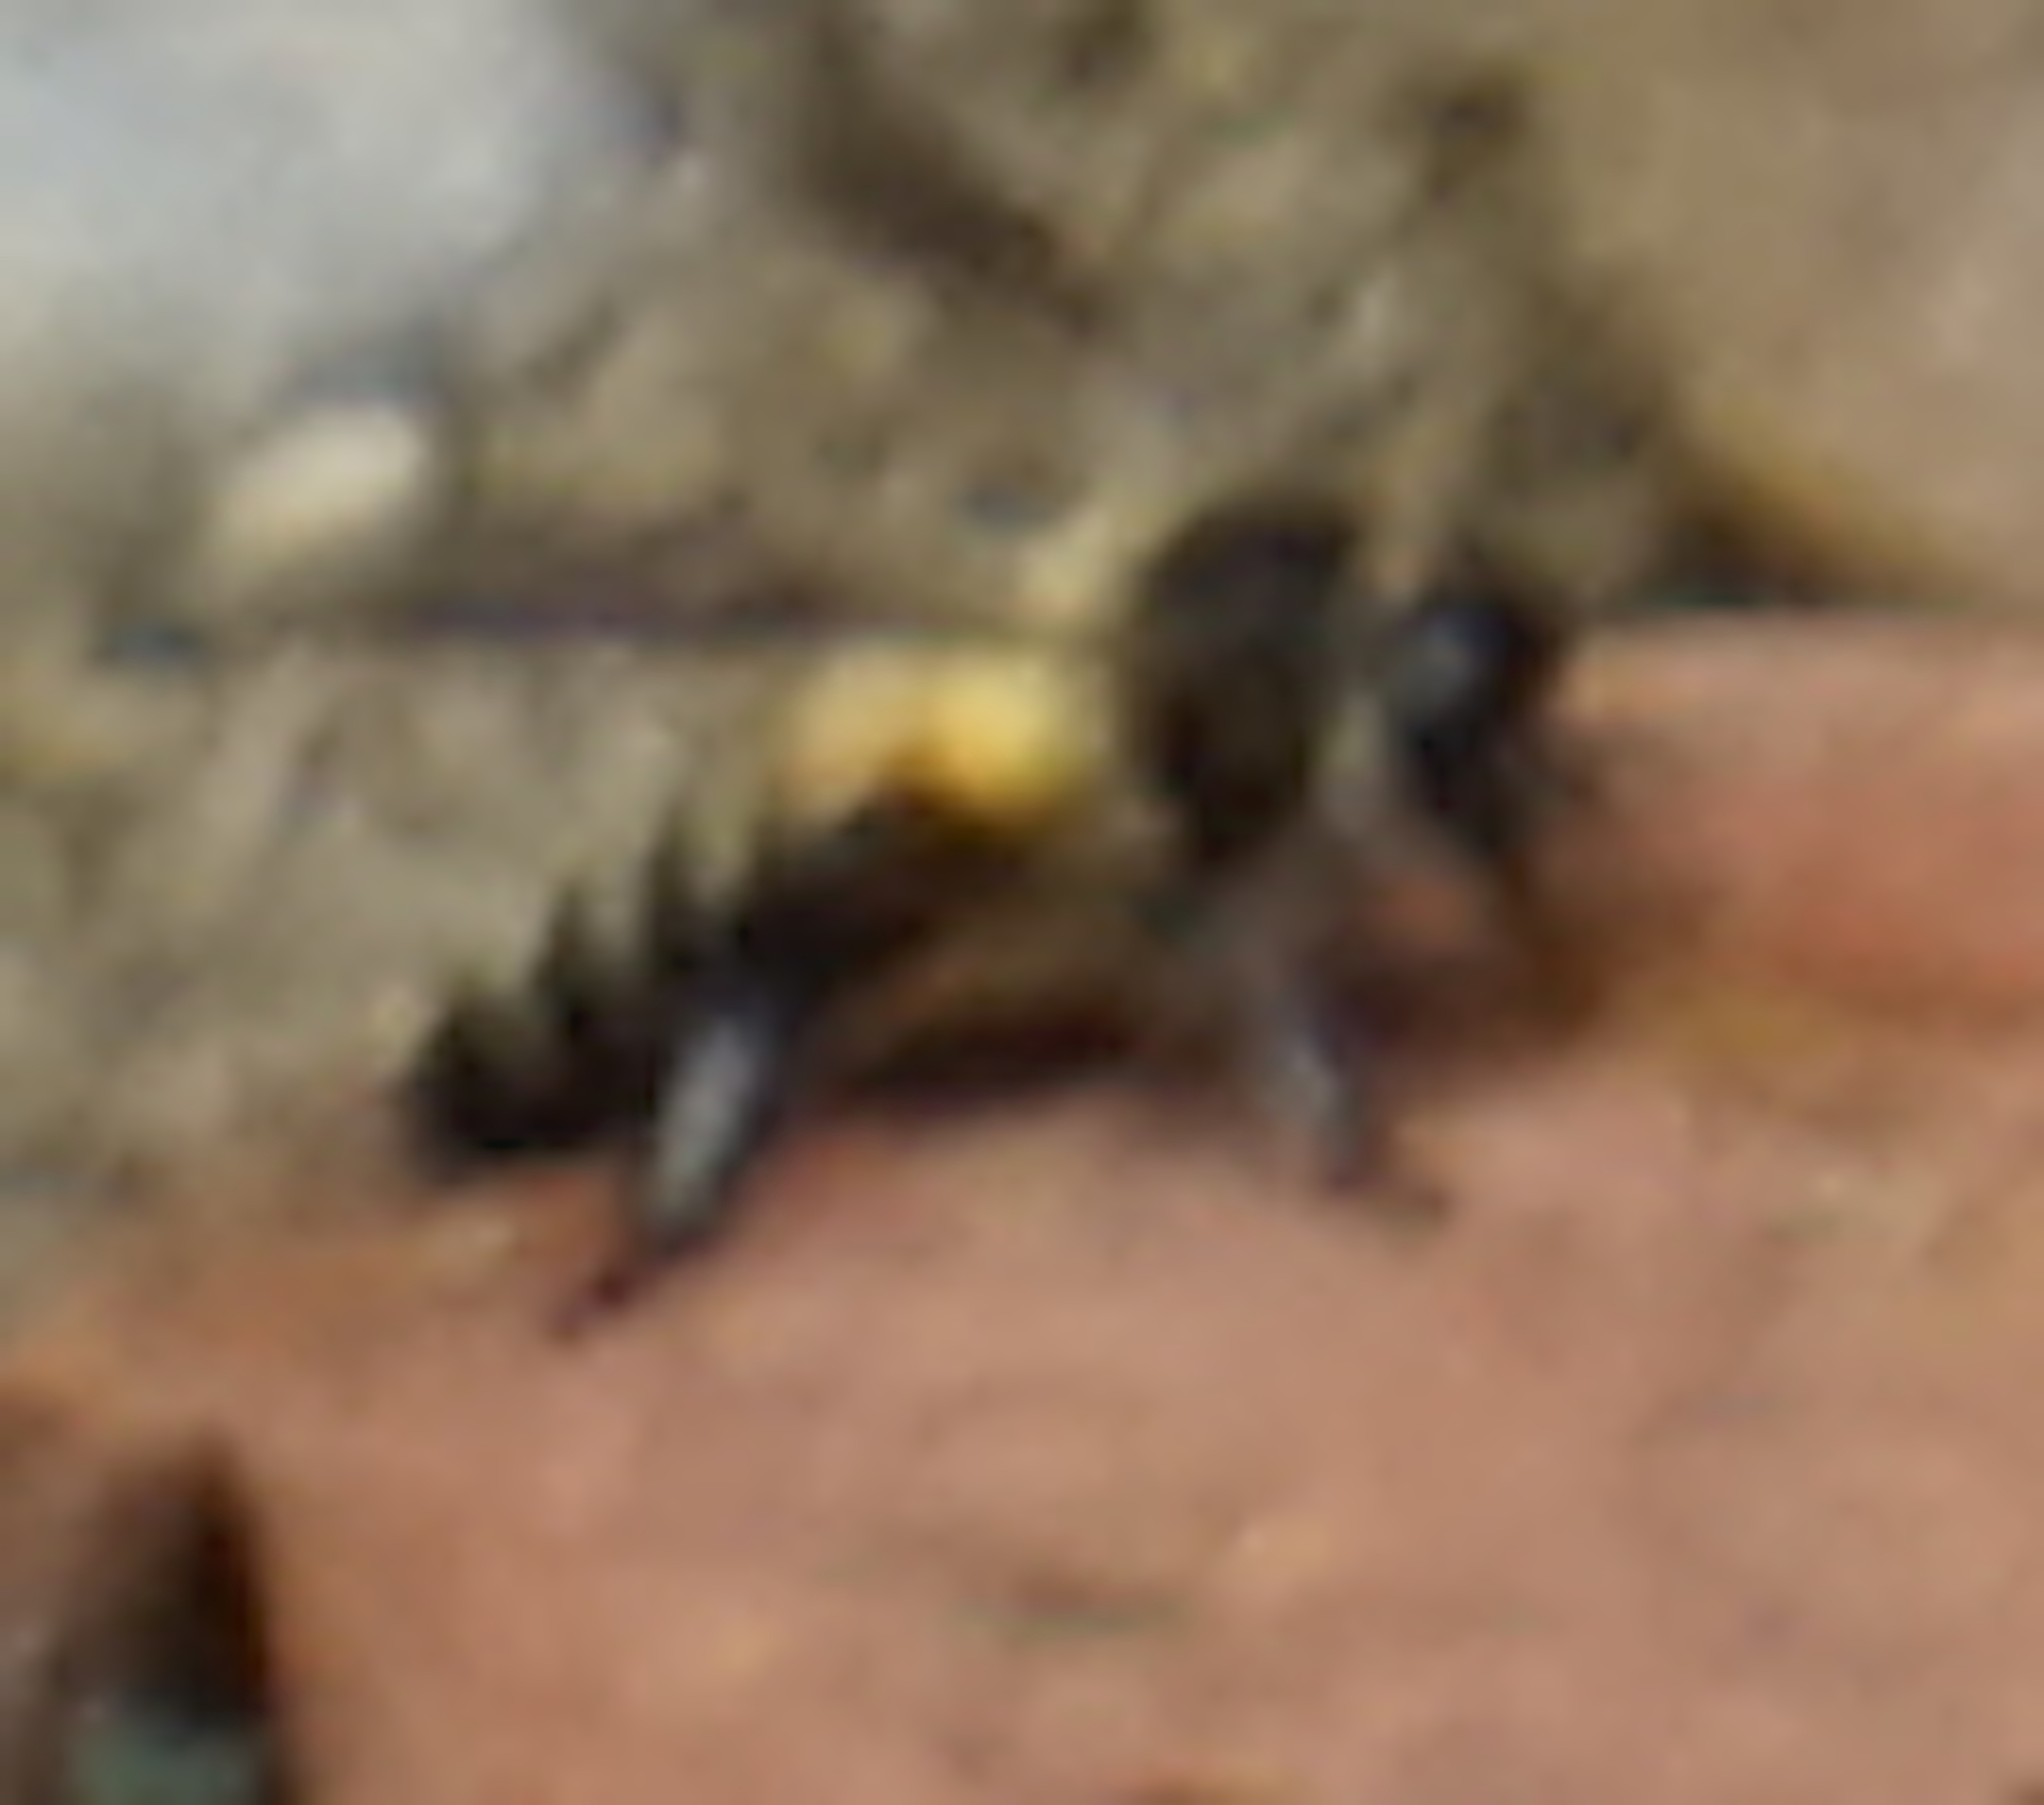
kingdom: Animalia
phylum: Arthropoda
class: Insecta
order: Hymenoptera
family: Apidae
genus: Apis
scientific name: Apis dorsata
